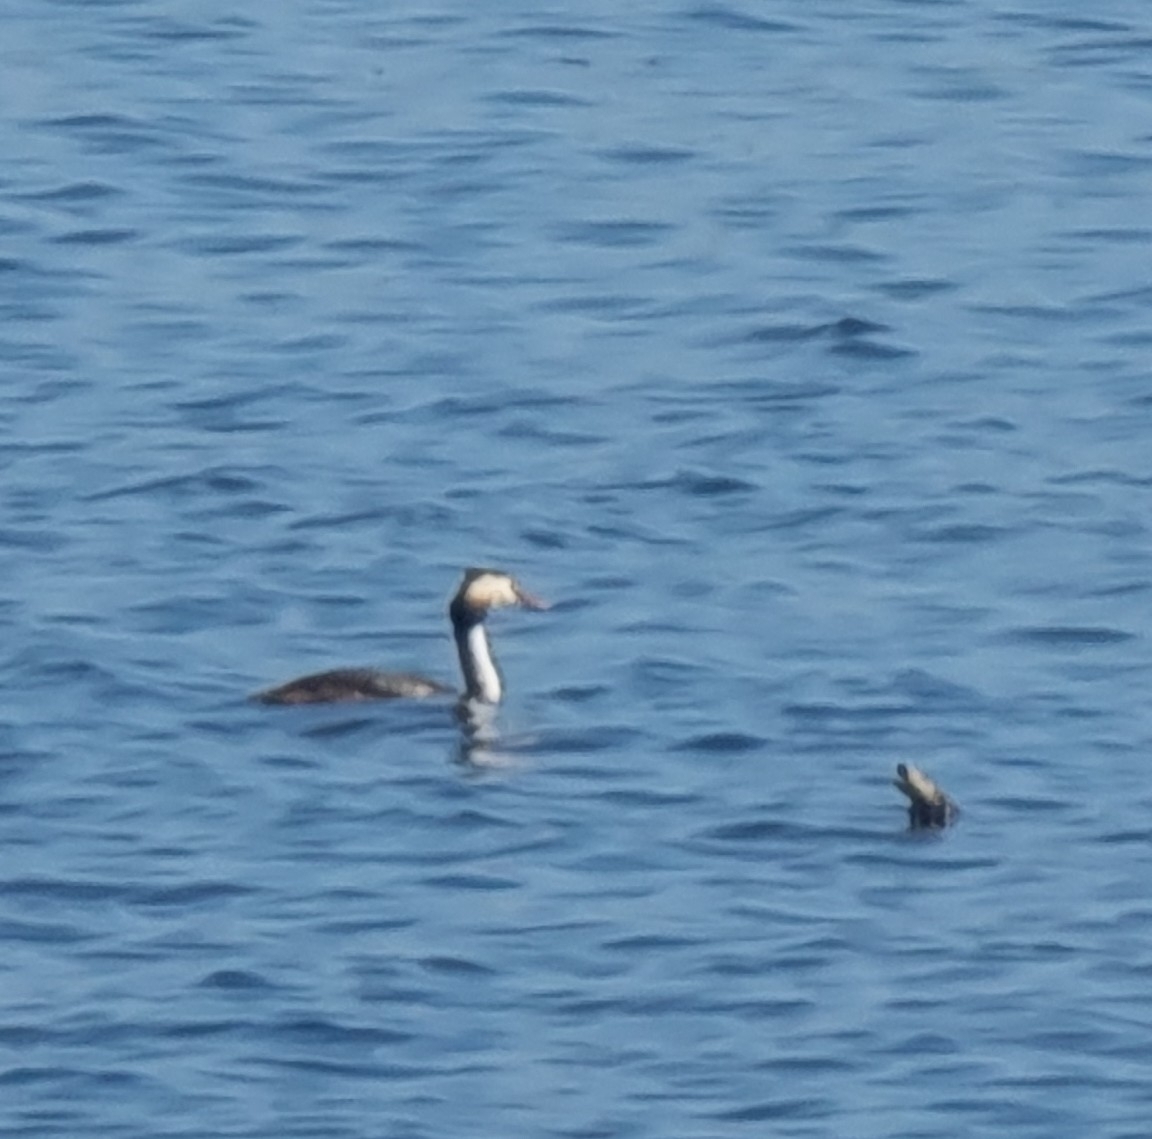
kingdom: Animalia
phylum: Chordata
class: Aves
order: Podicipediformes
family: Podicipedidae
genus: Podiceps
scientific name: Podiceps cristatus
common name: Great crested grebe
